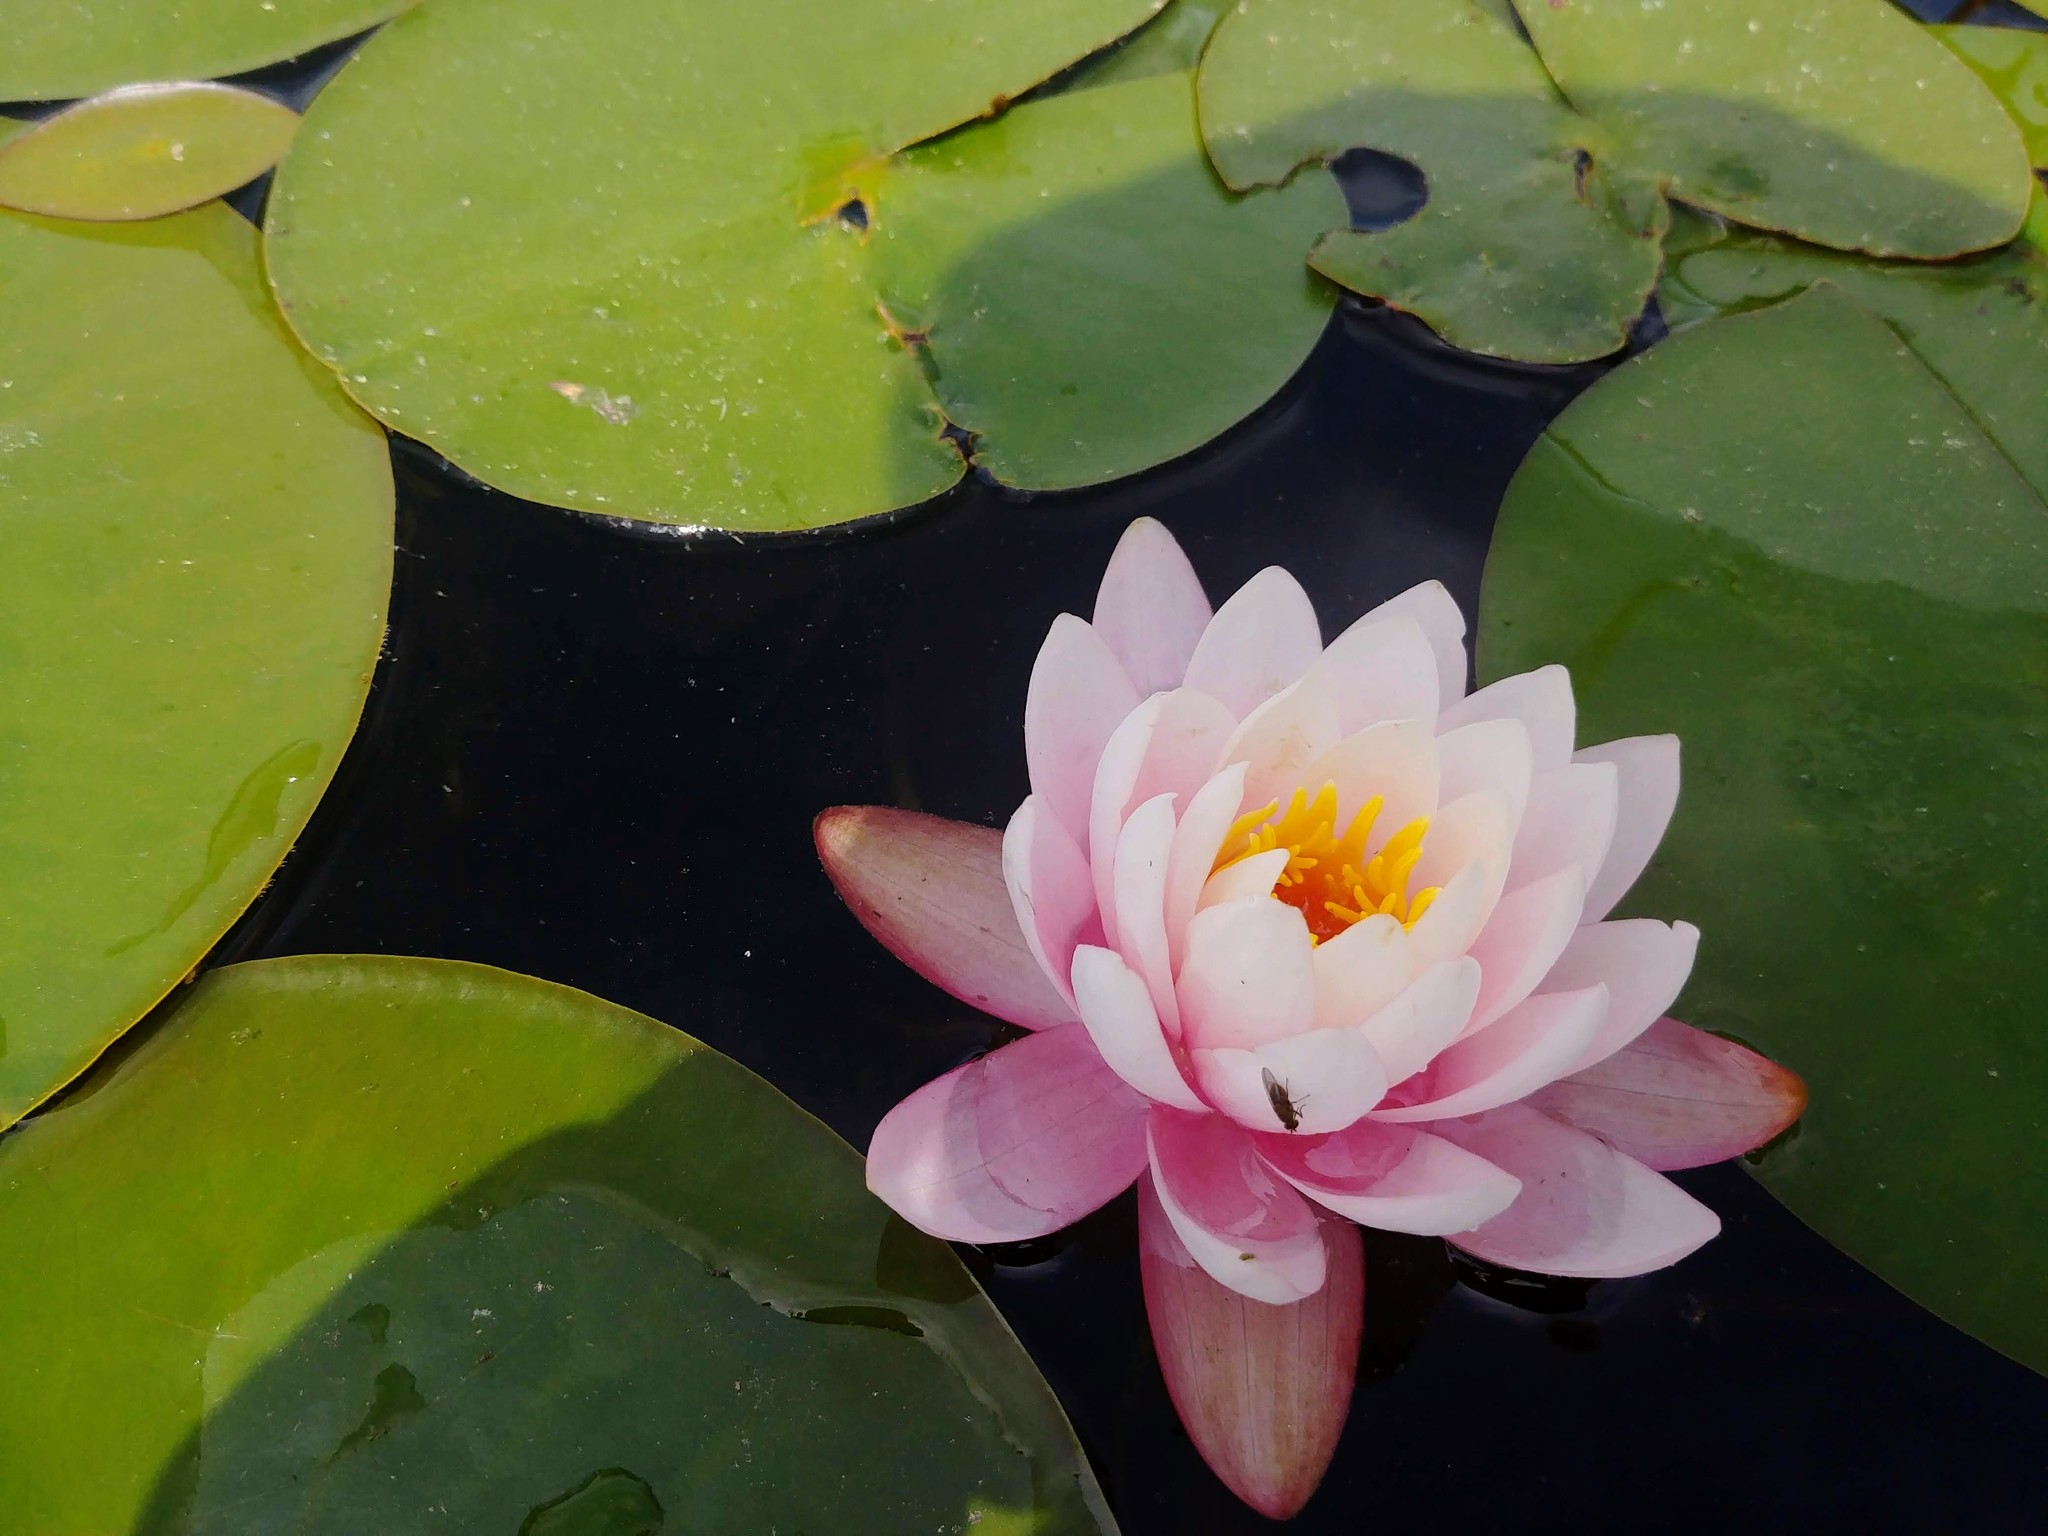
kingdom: Plantae
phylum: Tracheophyta
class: Magnoliopsida
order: Nymphaeales
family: Nymphaeaceae
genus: Nymphaea
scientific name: Nymphaea odorata
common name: Fragrant water-lily
